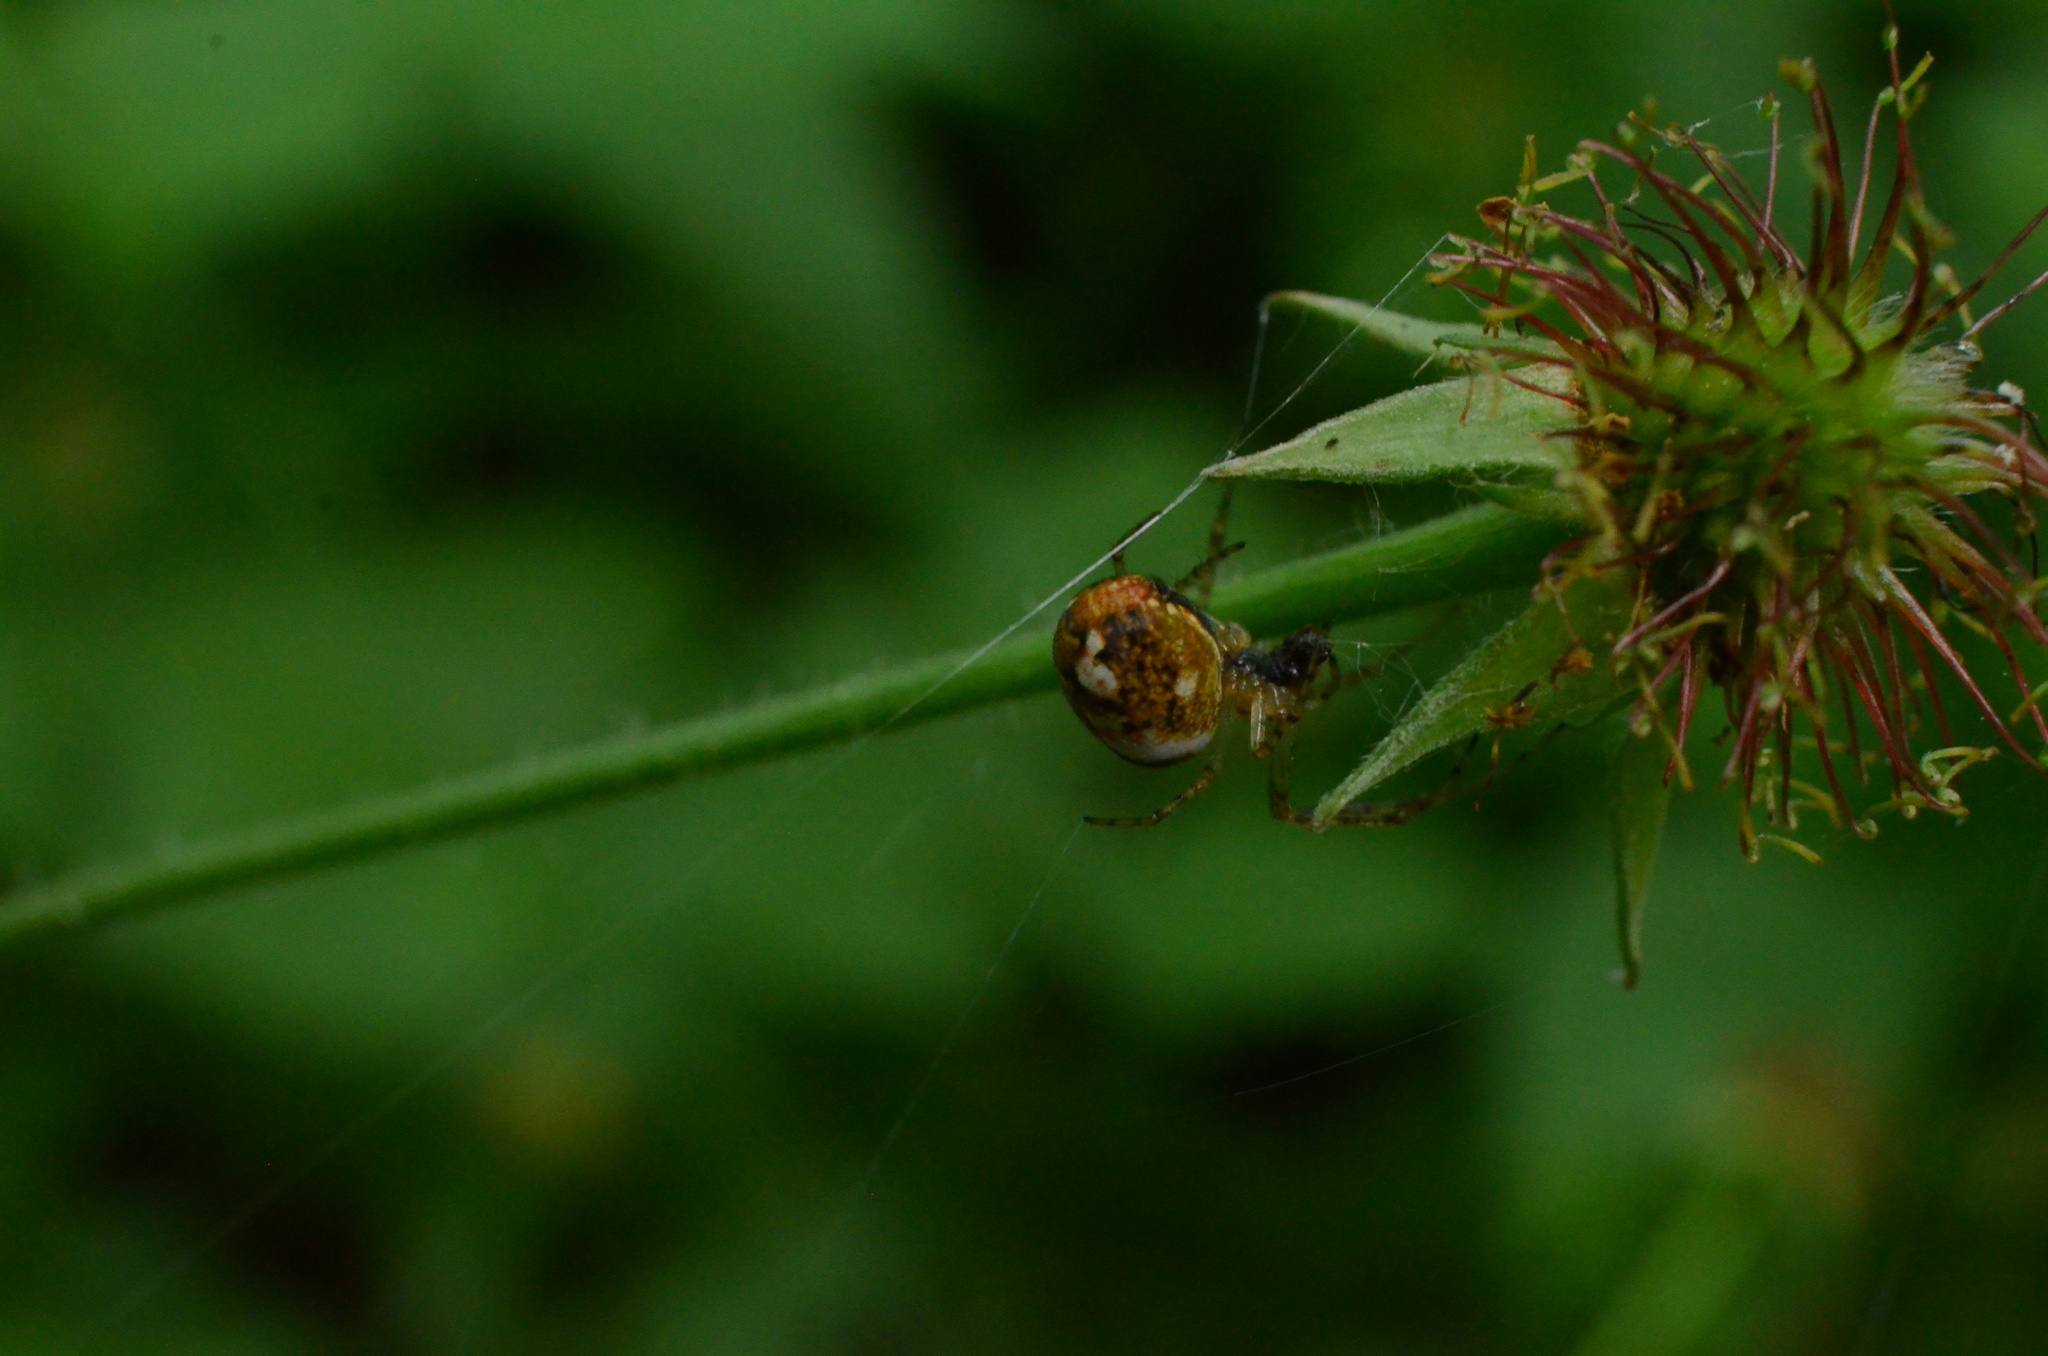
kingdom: Animalia
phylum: Arthropoda
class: Arachnida
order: Araneae
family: Tetragnathidae
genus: Metellina
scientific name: Metellina
